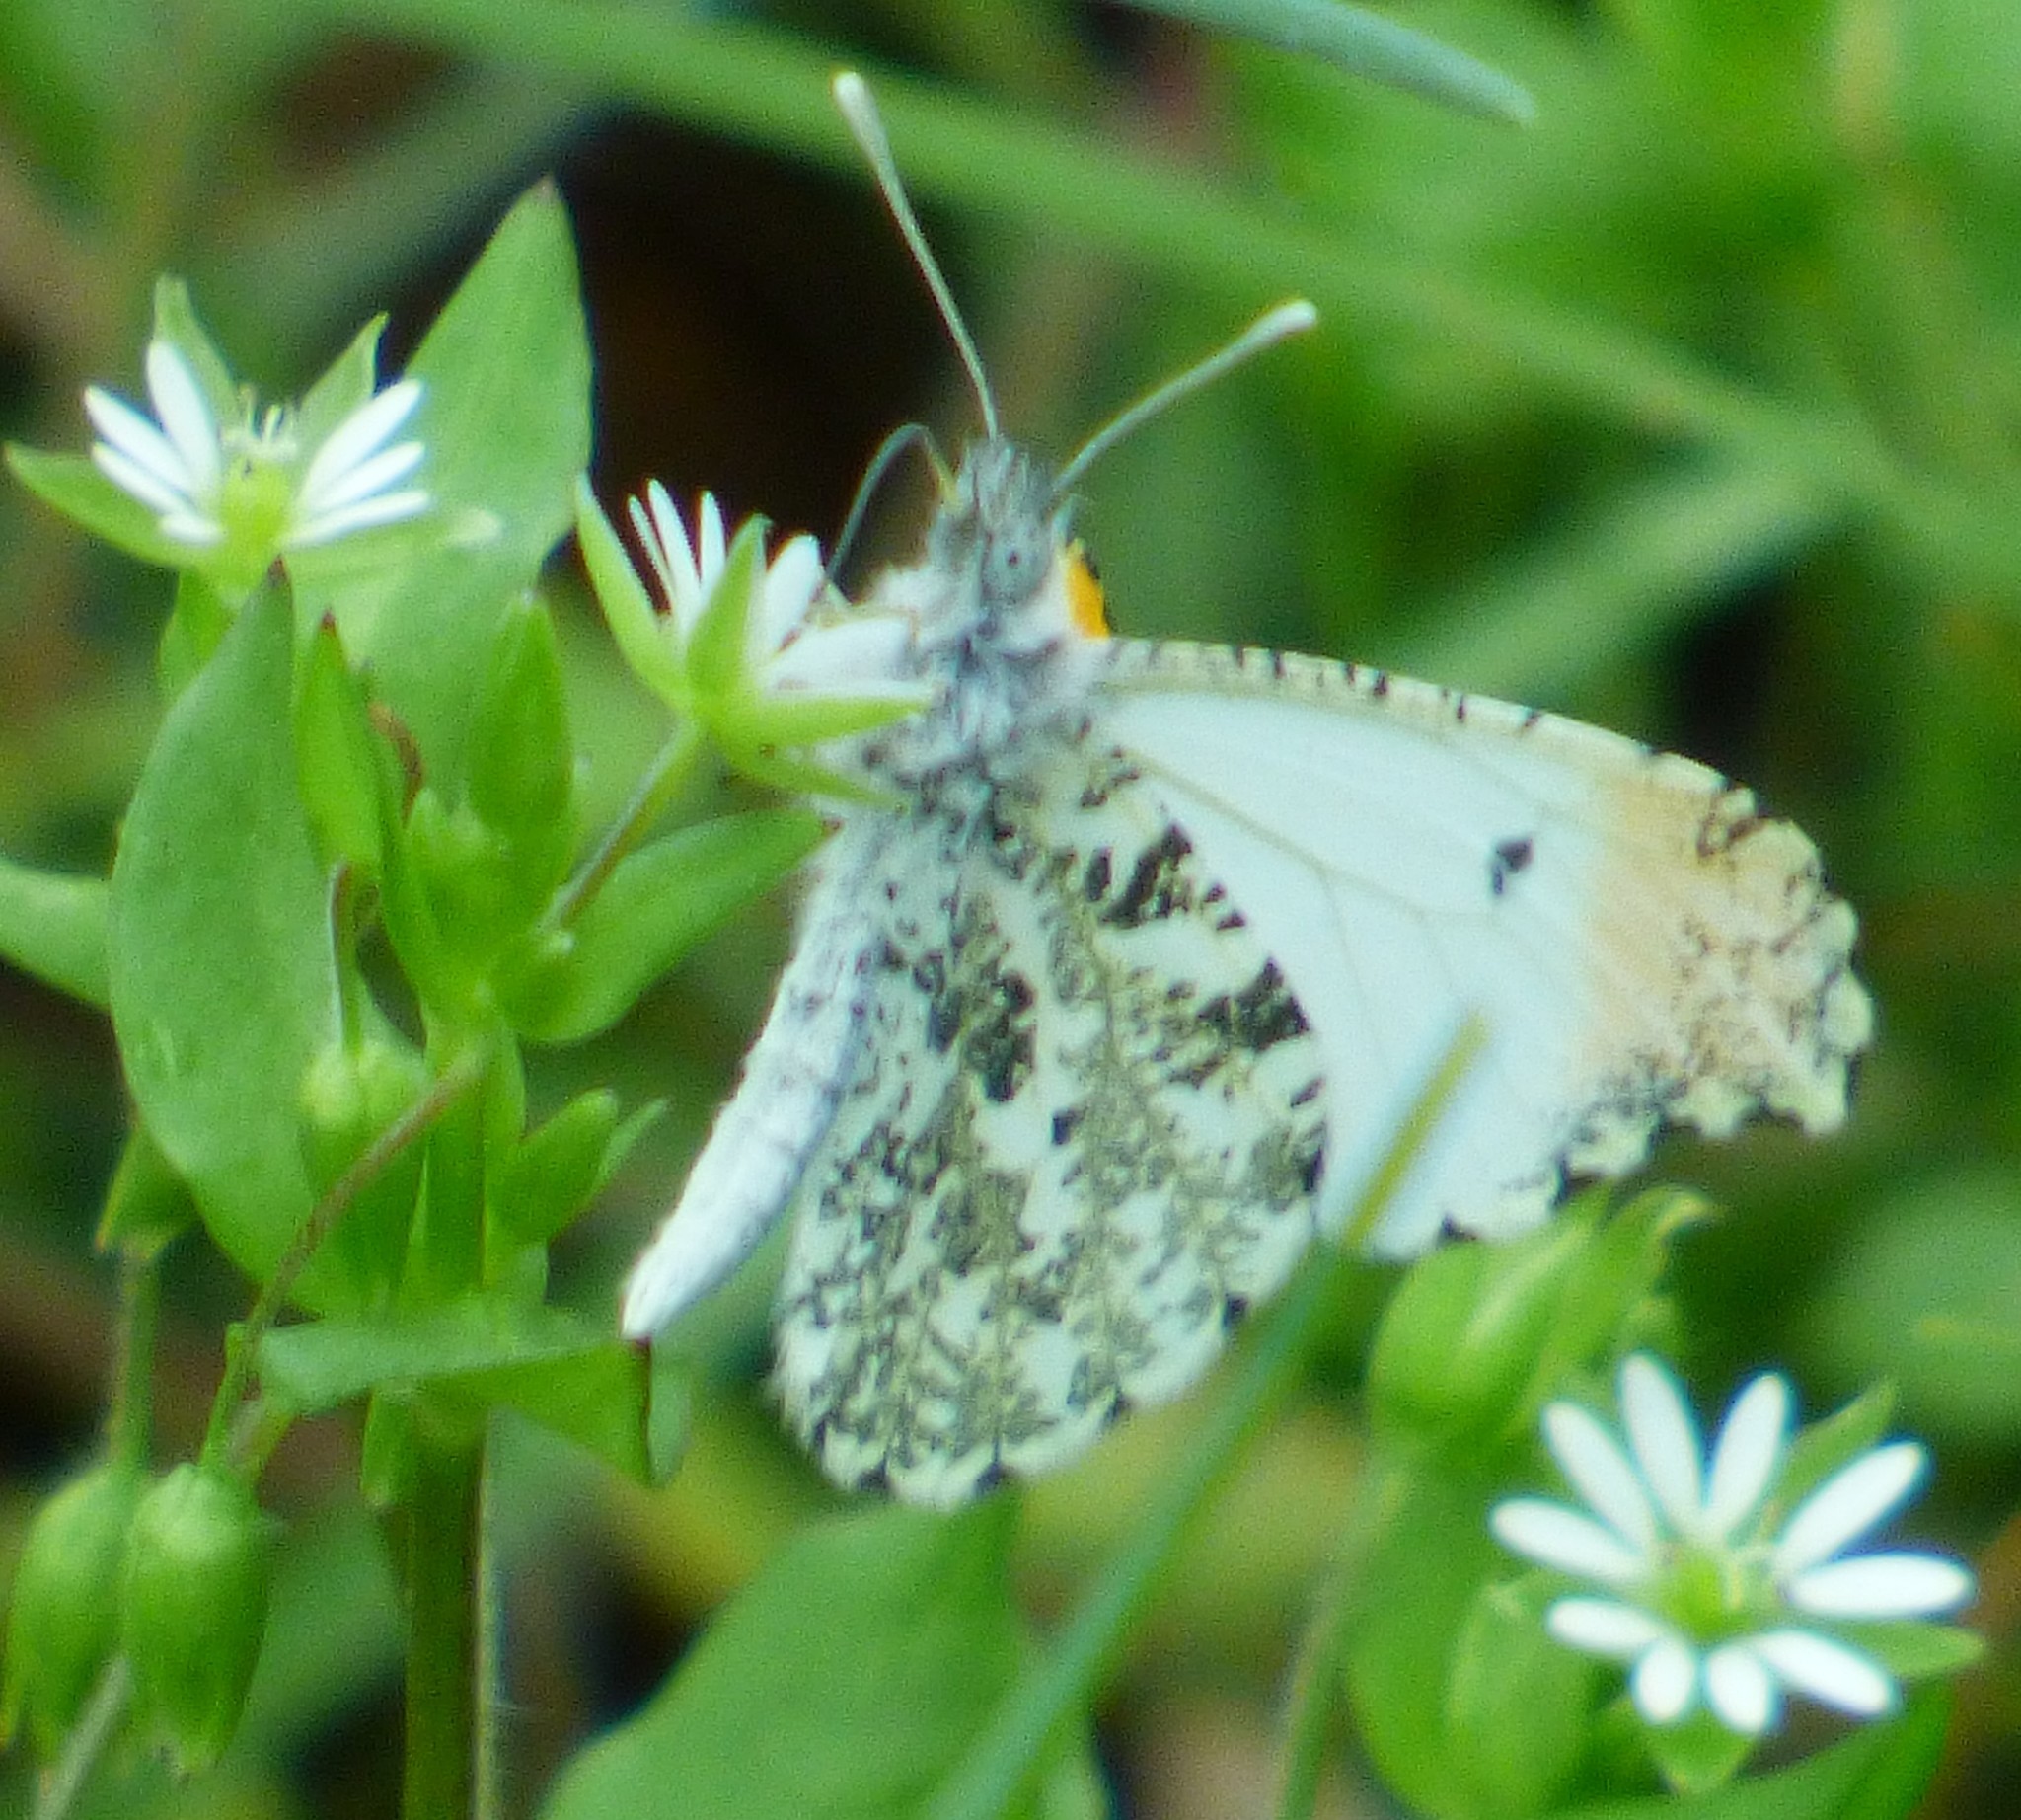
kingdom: Animalia
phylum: Arthropoda
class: Insecta
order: Lepidoptera
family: Pieridae
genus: Anthocharis
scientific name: Anthocharis midea
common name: Falcate orangetip
